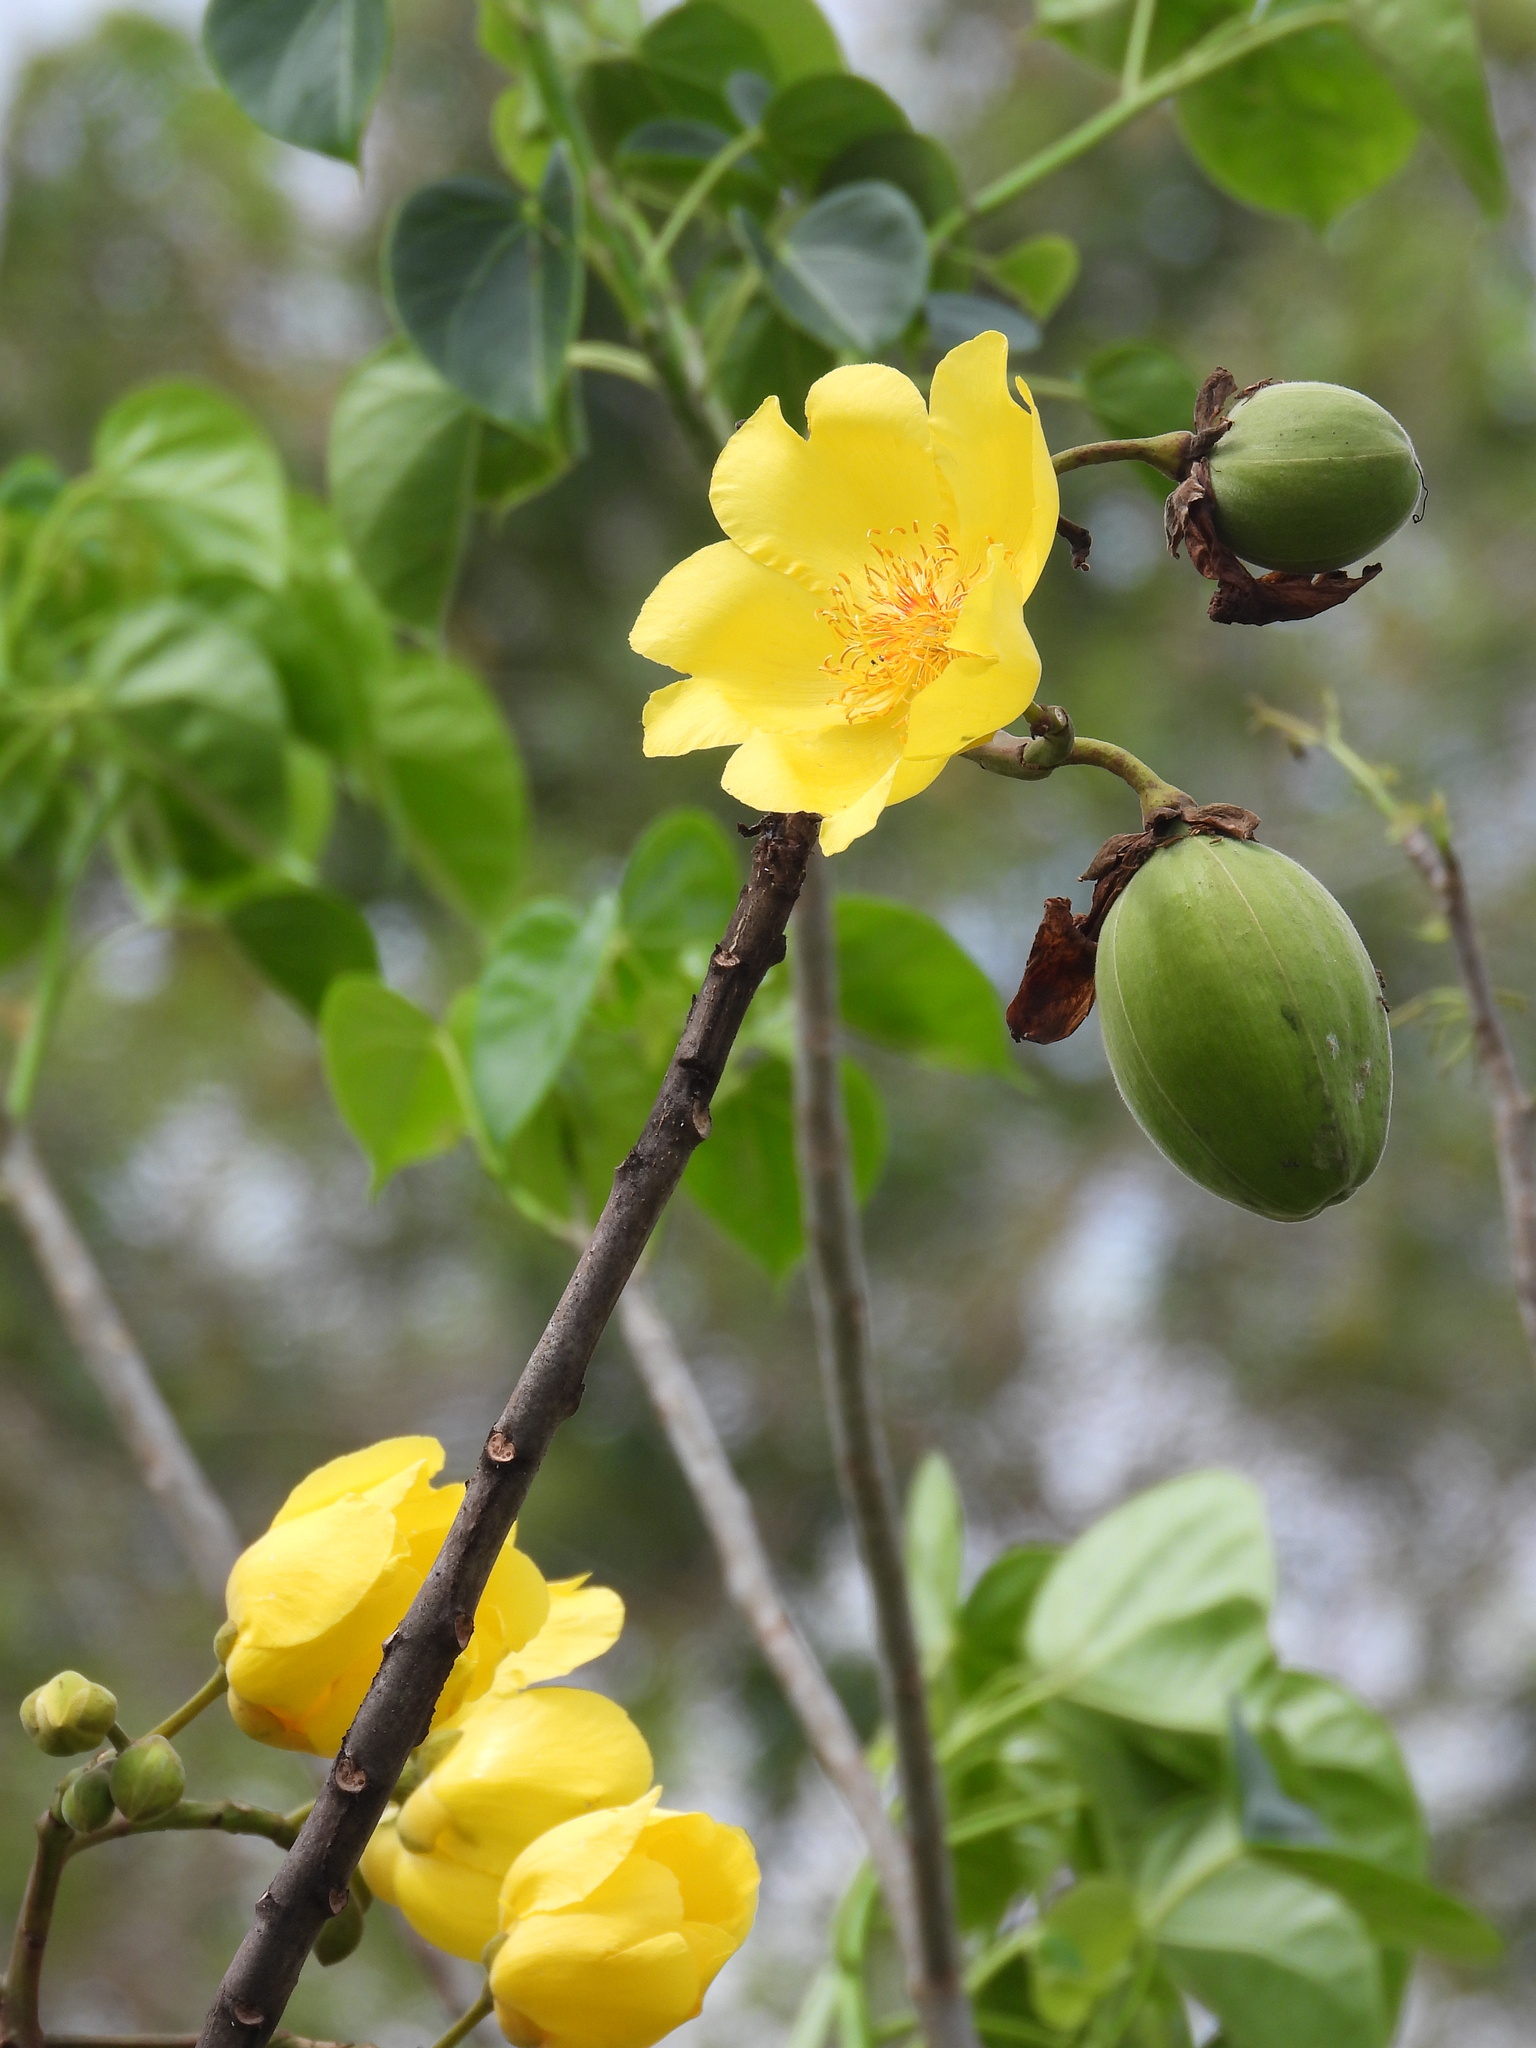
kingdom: Plantae
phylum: Tracheophyta
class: Magnoliopsida
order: Malvales
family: Cochlospermaceae
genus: Cochlospermum
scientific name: Cochlospermum vitifolium
